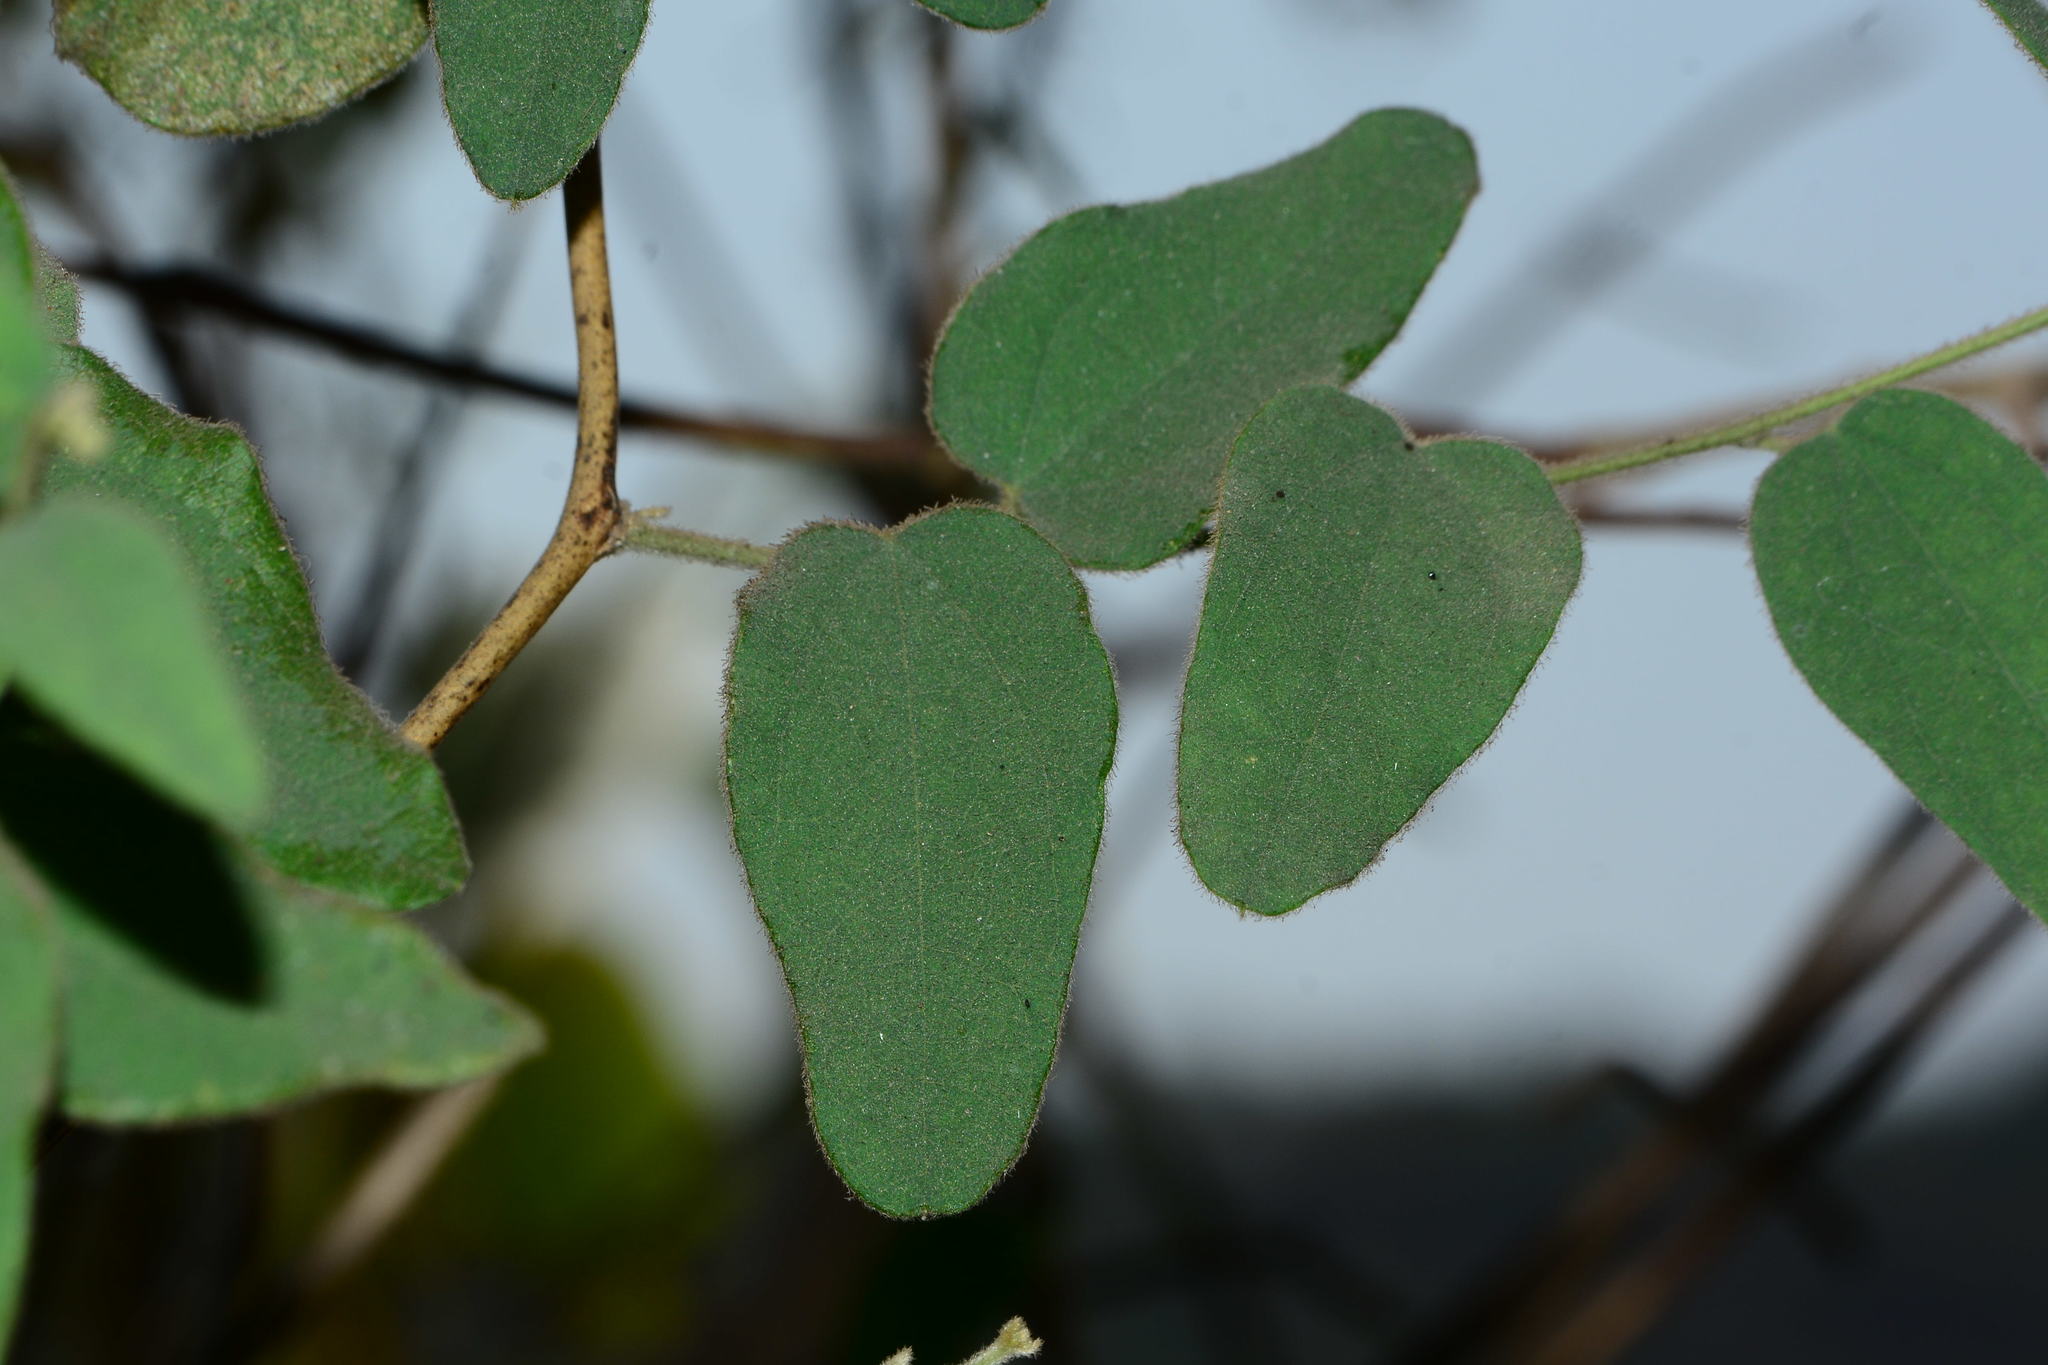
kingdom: Plantae
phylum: Tracheophyta
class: Magnoliopsida
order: Ranunculales
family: Menispermaceae
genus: Cocculus
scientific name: Cocculus hirsutus
